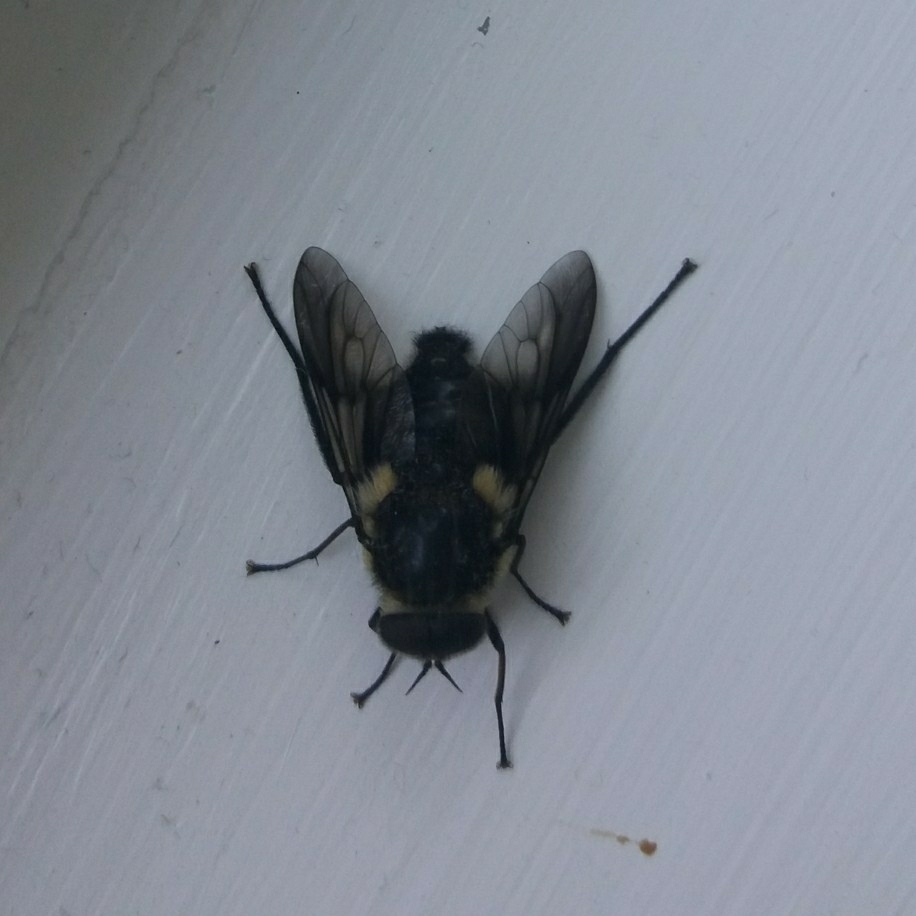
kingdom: Animalia
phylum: Arthropoda
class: Insecta
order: Diptera
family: Tabanidae
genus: Scaptia
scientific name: Scaptia
